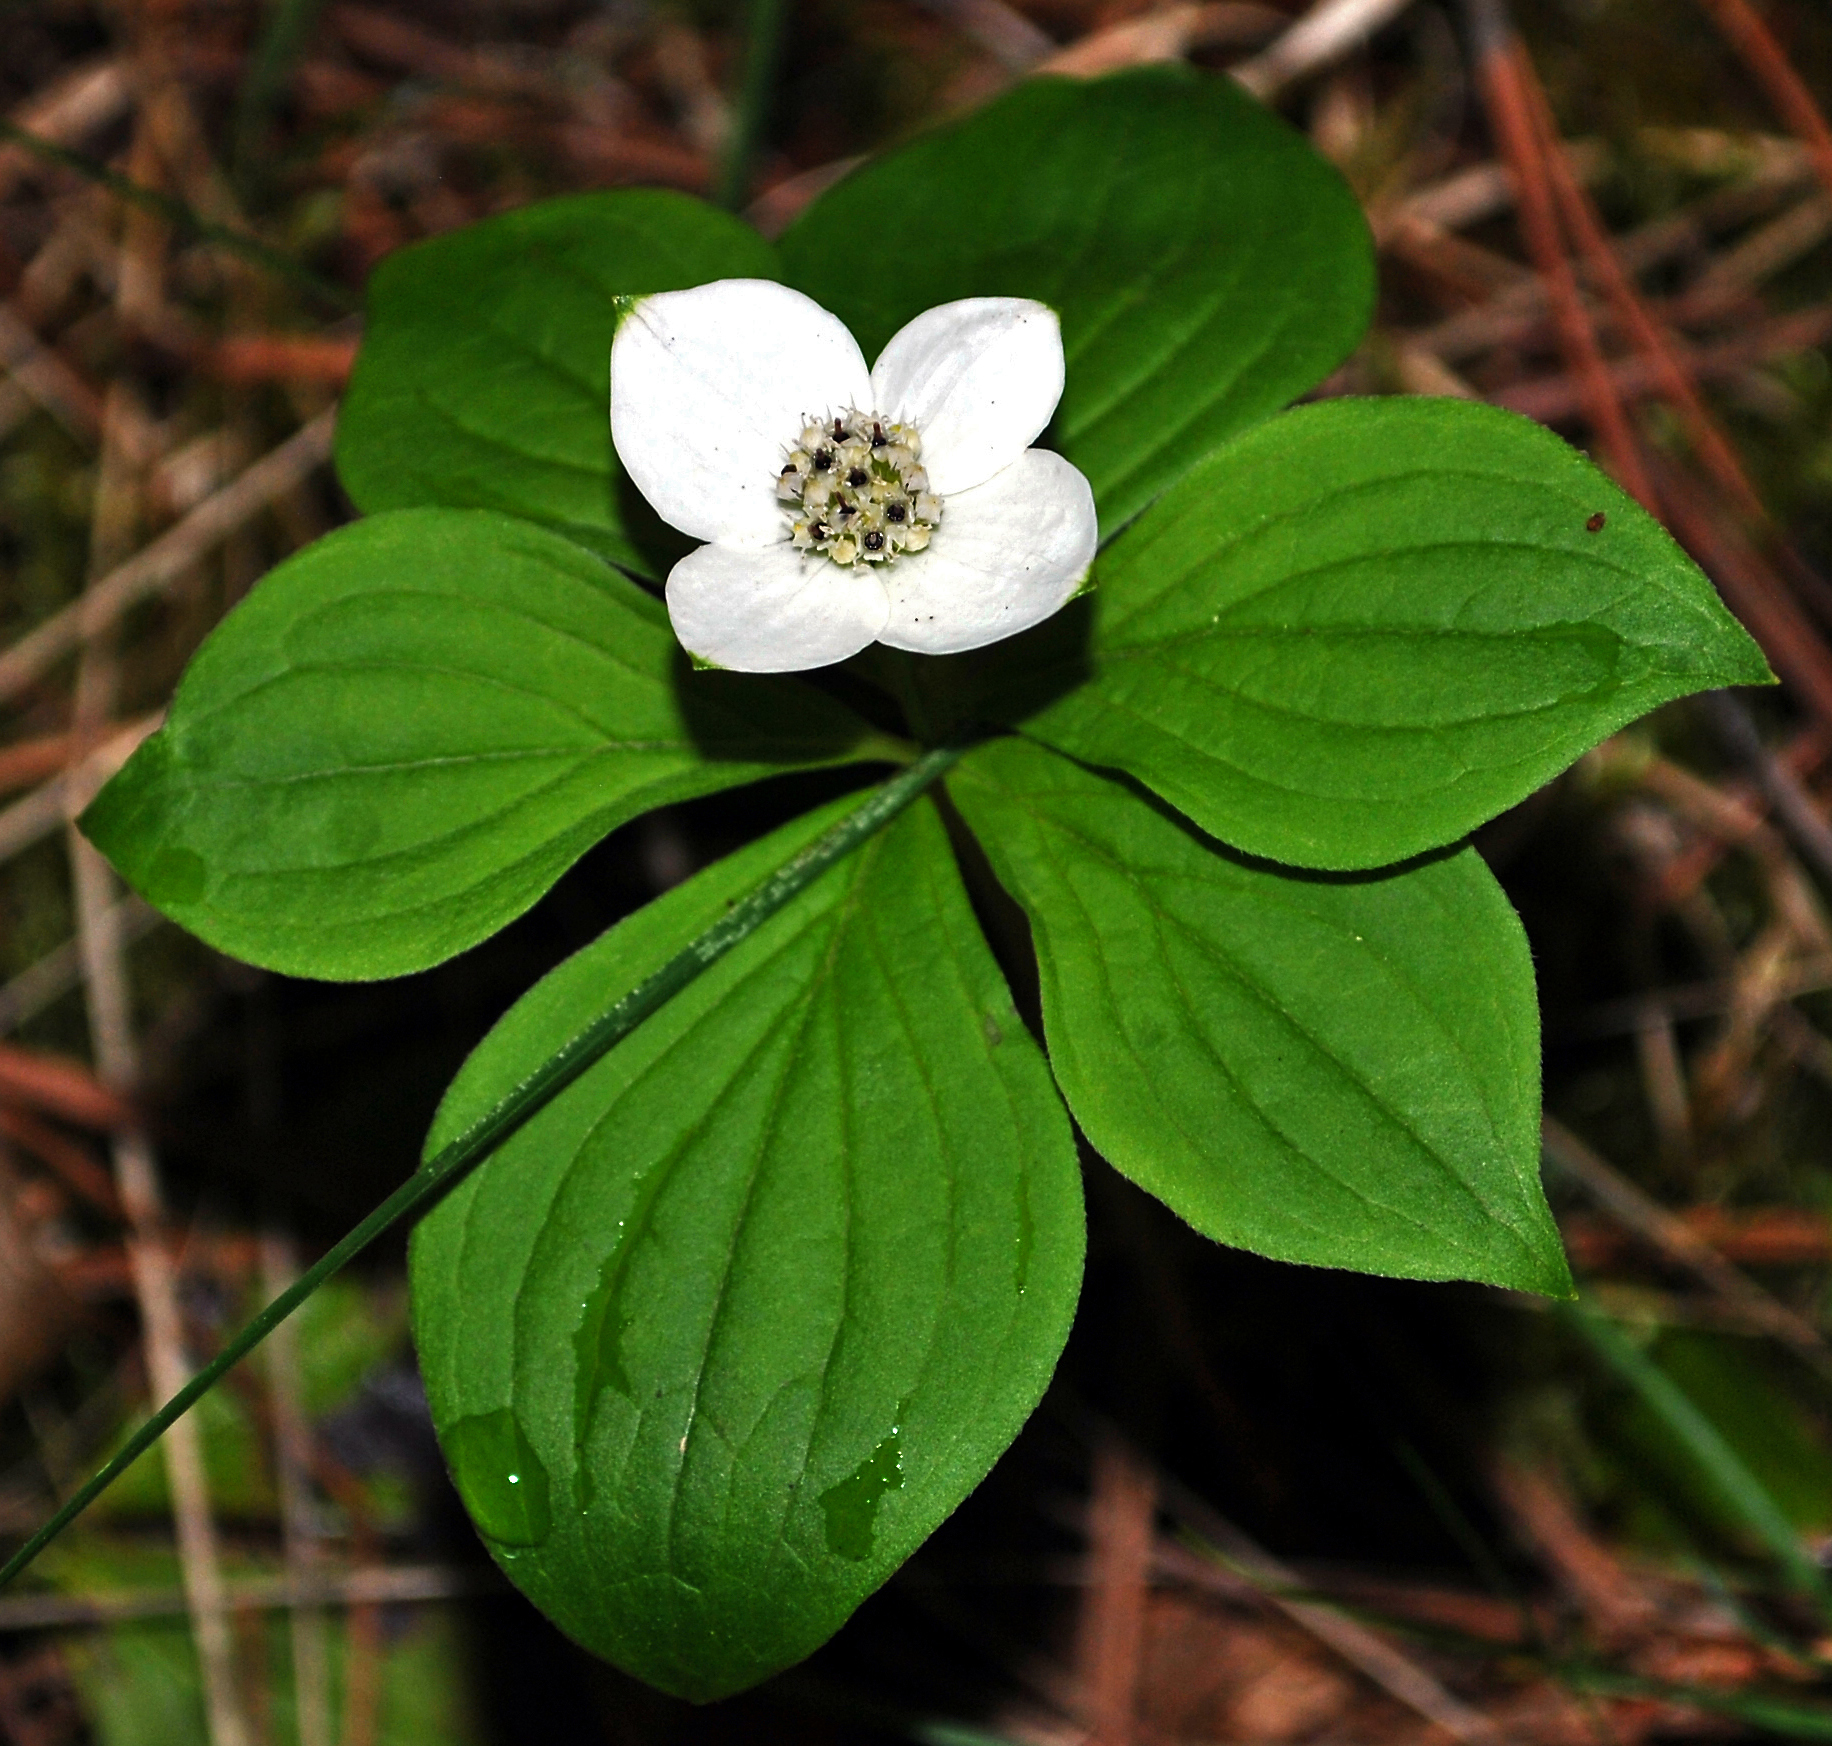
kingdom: Plantae
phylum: Tracheophyta
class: Magnoliopsida
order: Cornales
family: Cornaceae
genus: Cornus
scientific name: Cornus canadensis
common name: Creeping dogwood
